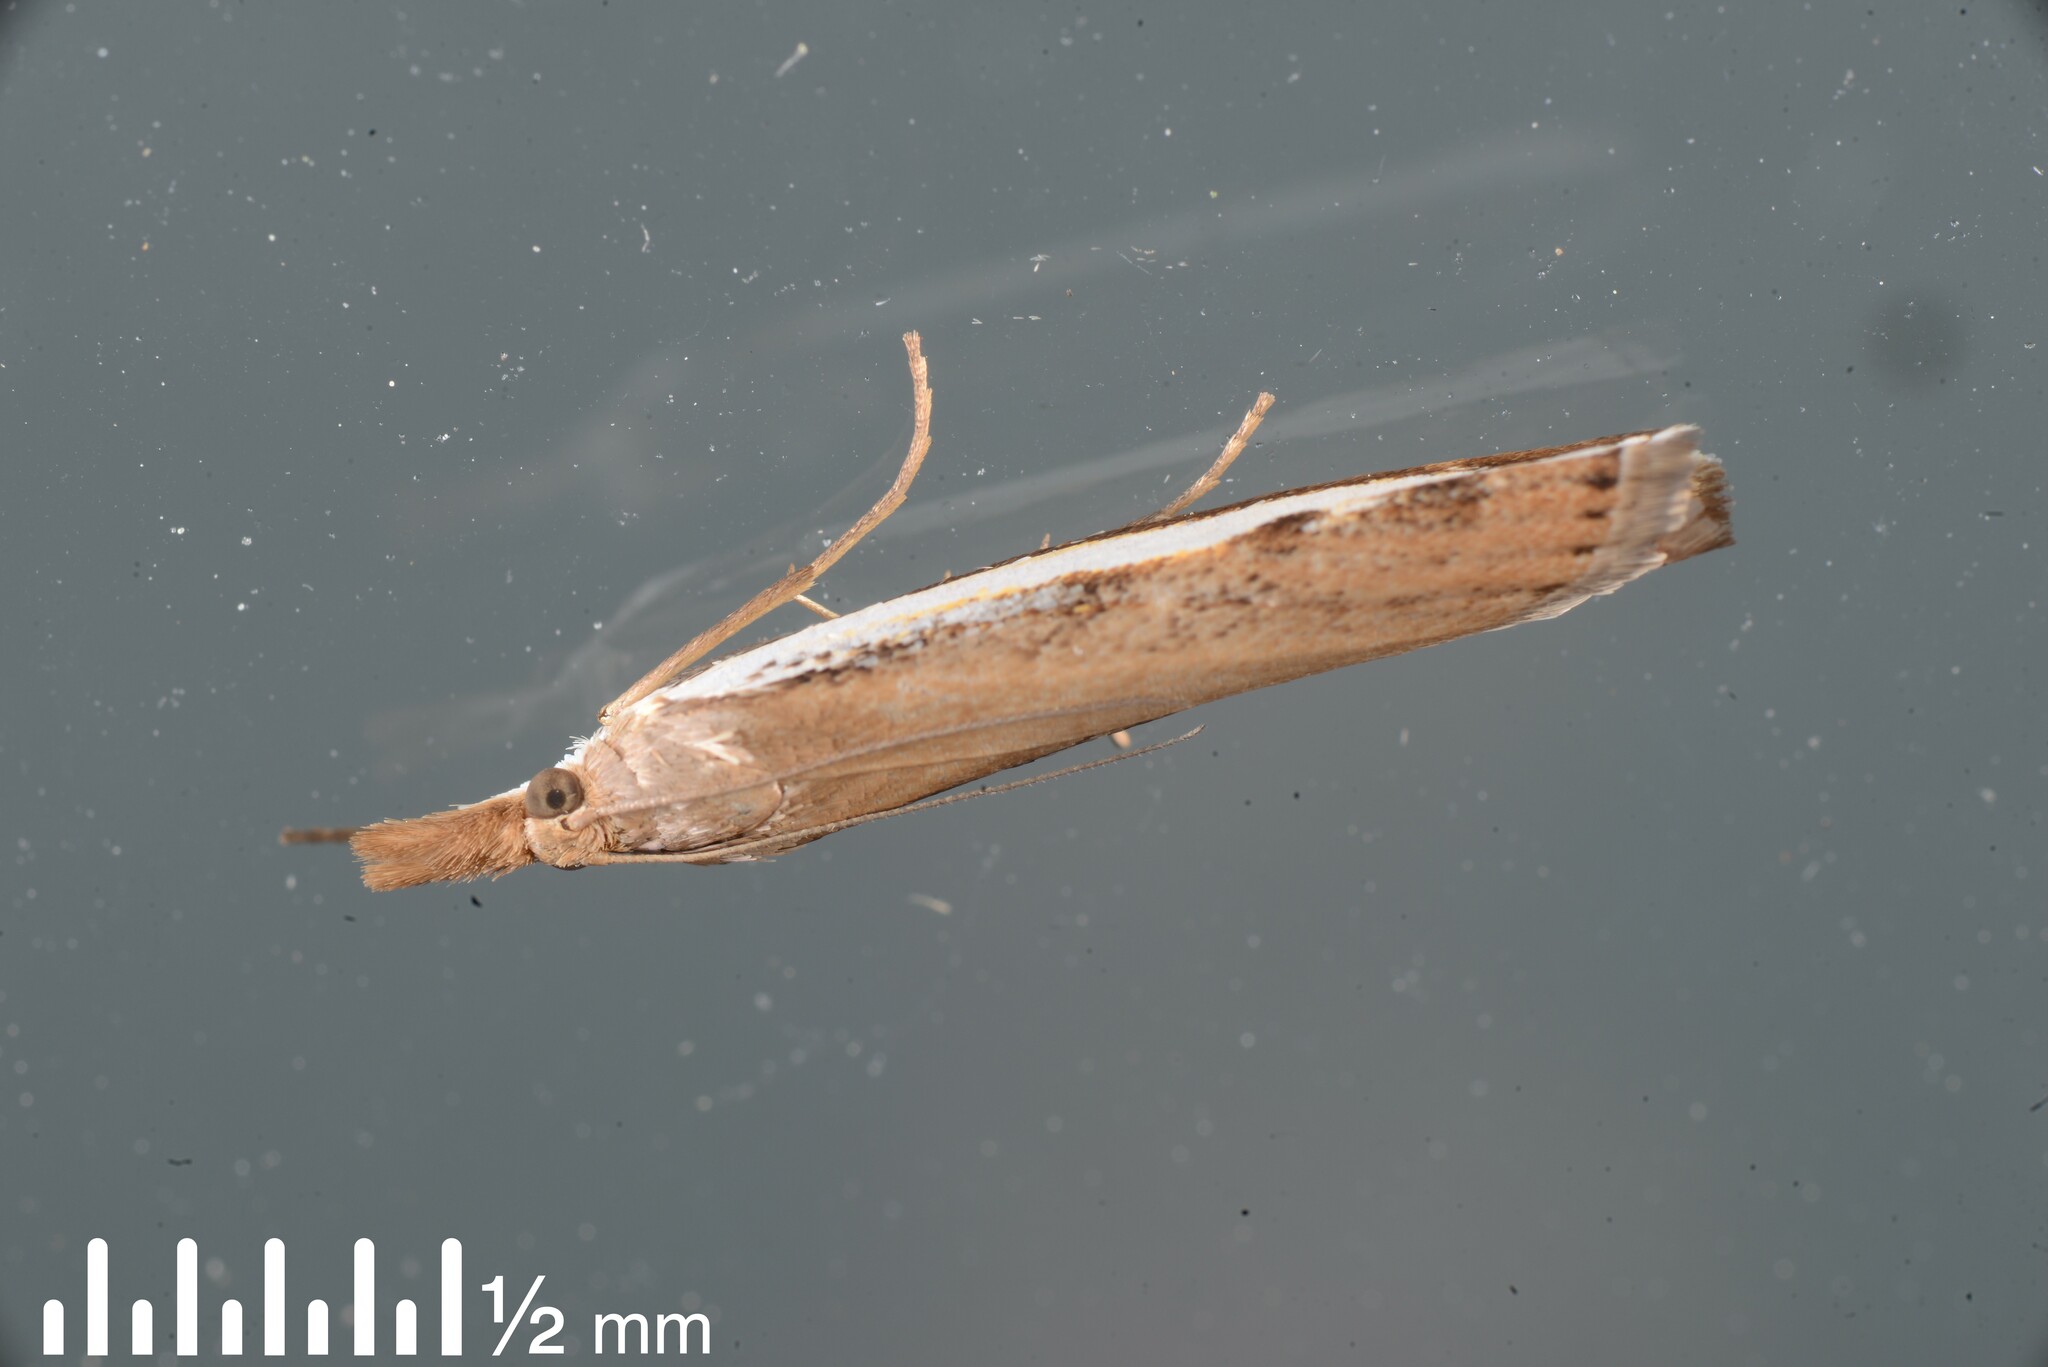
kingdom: Animalia
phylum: Arthropoda
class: Insecta
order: Lepidoptera
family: Crambidae
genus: Orocrambus
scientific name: Orocrambus flexuosellus
